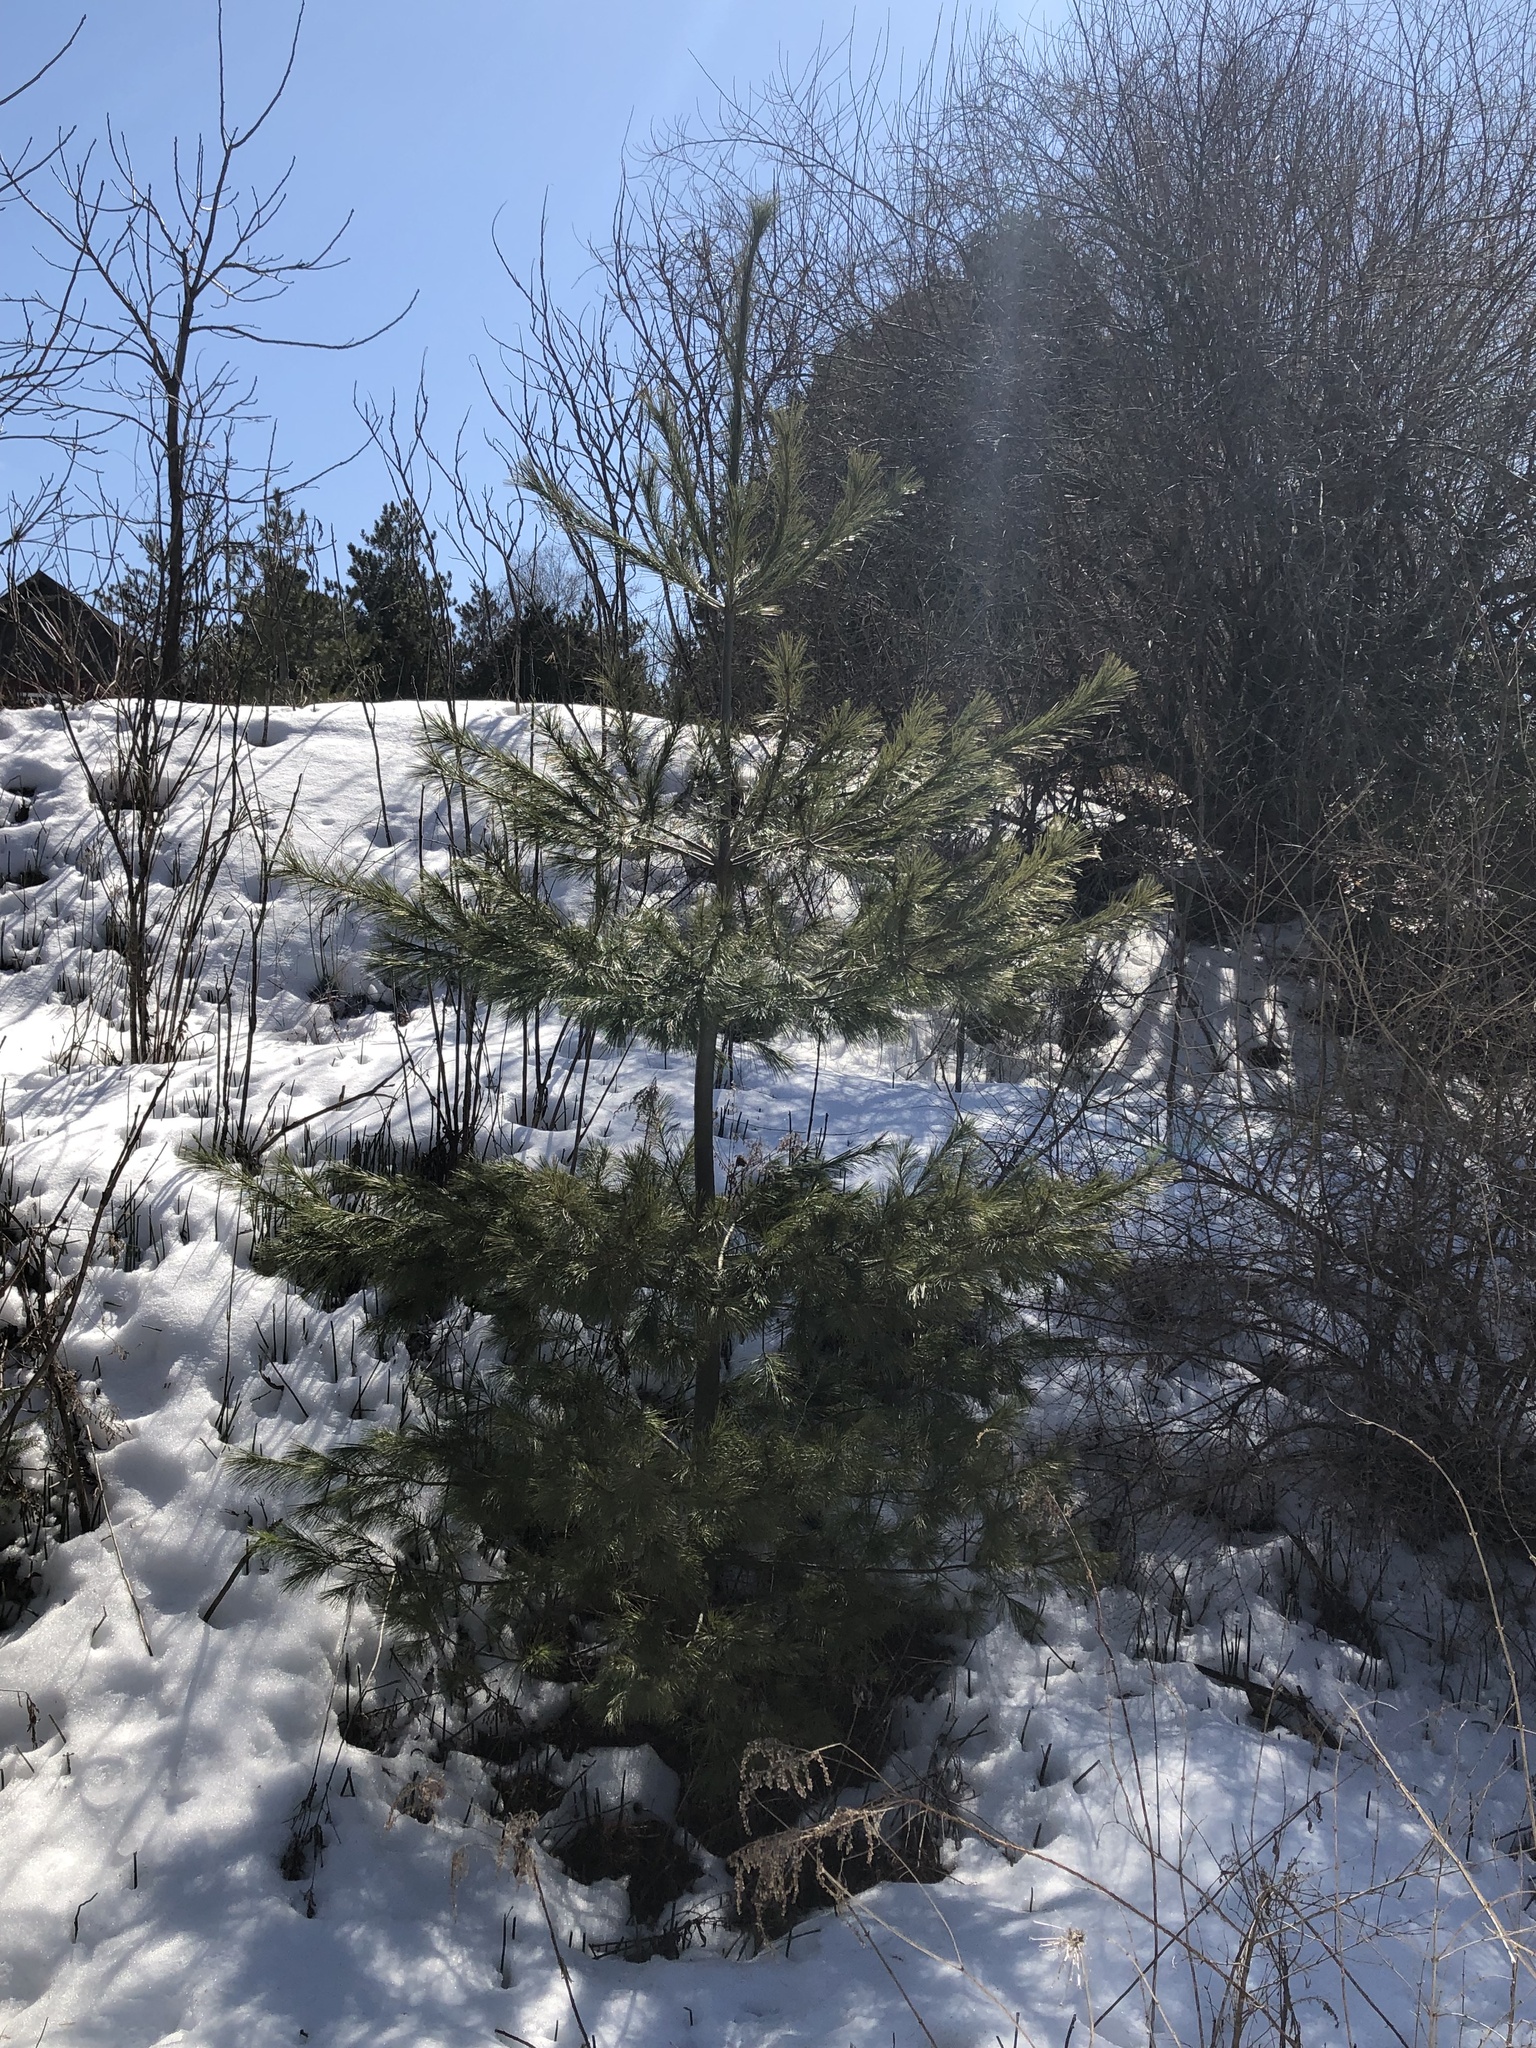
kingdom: Plantae
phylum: Tracheophyta
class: Pinopsida
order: Pinales
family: Pinaceae
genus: Pinus
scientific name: Pinus strobus
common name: Weymouth pine
